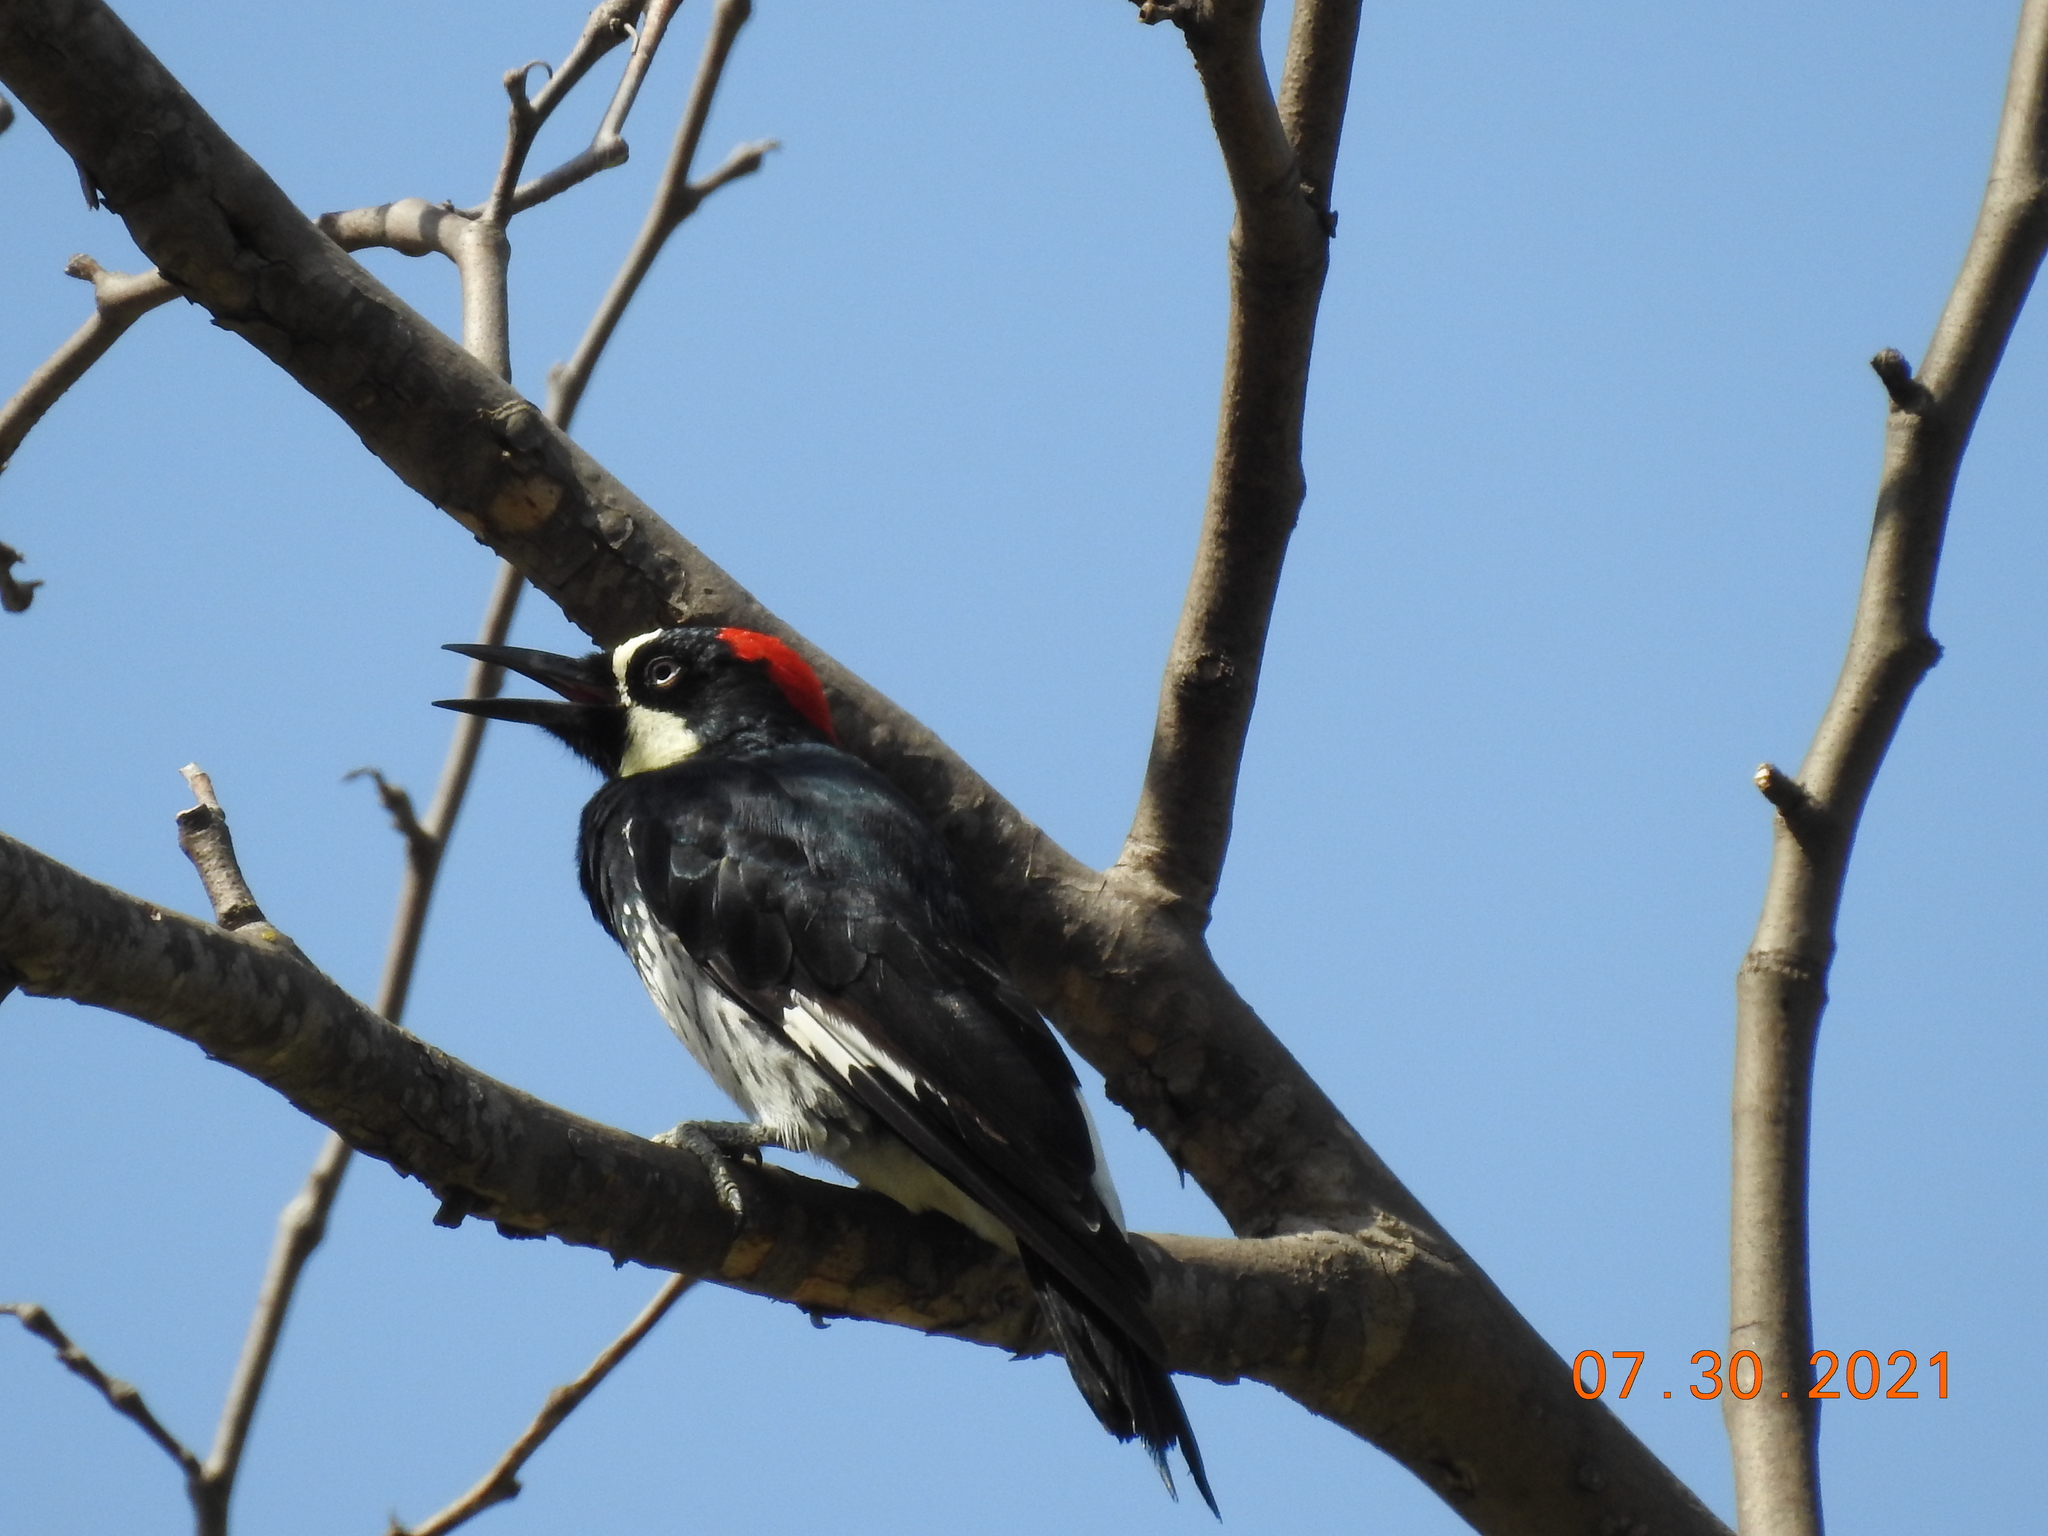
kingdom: Animalia
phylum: Chordata
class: Aves
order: Piciformes
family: Picidae
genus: Melanerpes
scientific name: Melanerpes formicivorus
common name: Acorn woodpecker
